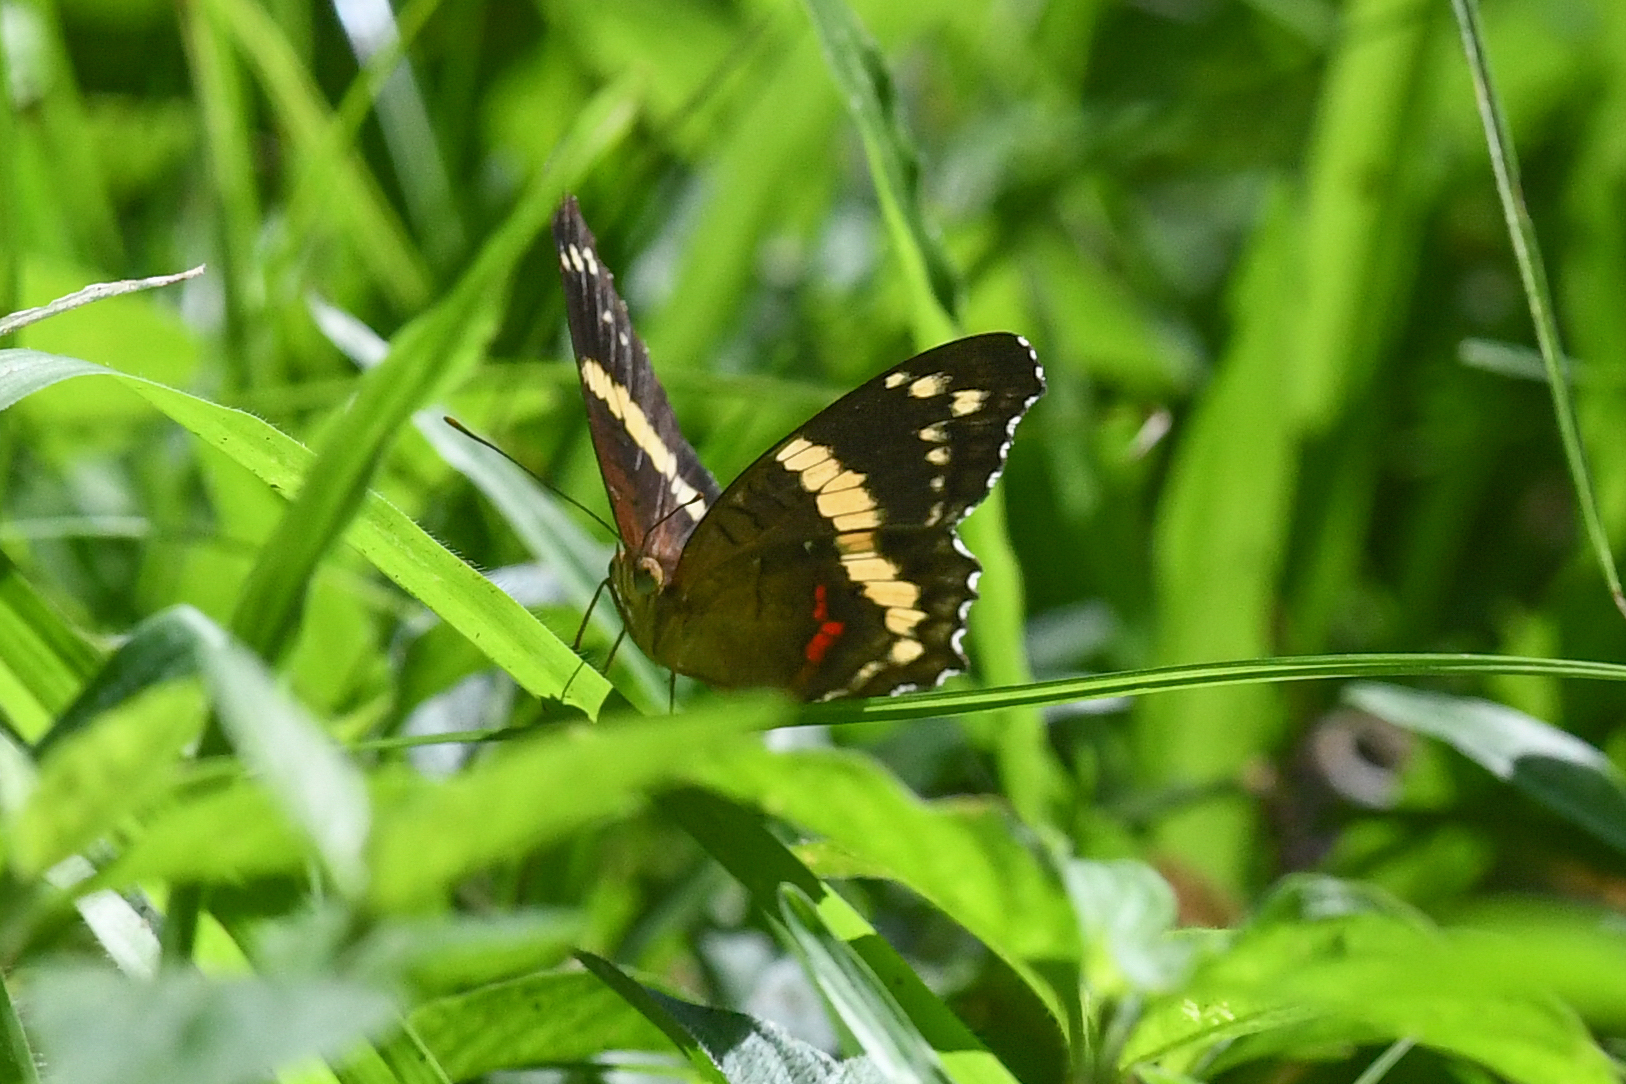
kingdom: Animalia
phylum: Arthropoda
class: Insecta
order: Lepidoptera
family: Nymphalidae
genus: Anartia
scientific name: Anartia fatima
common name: Banded peacock
